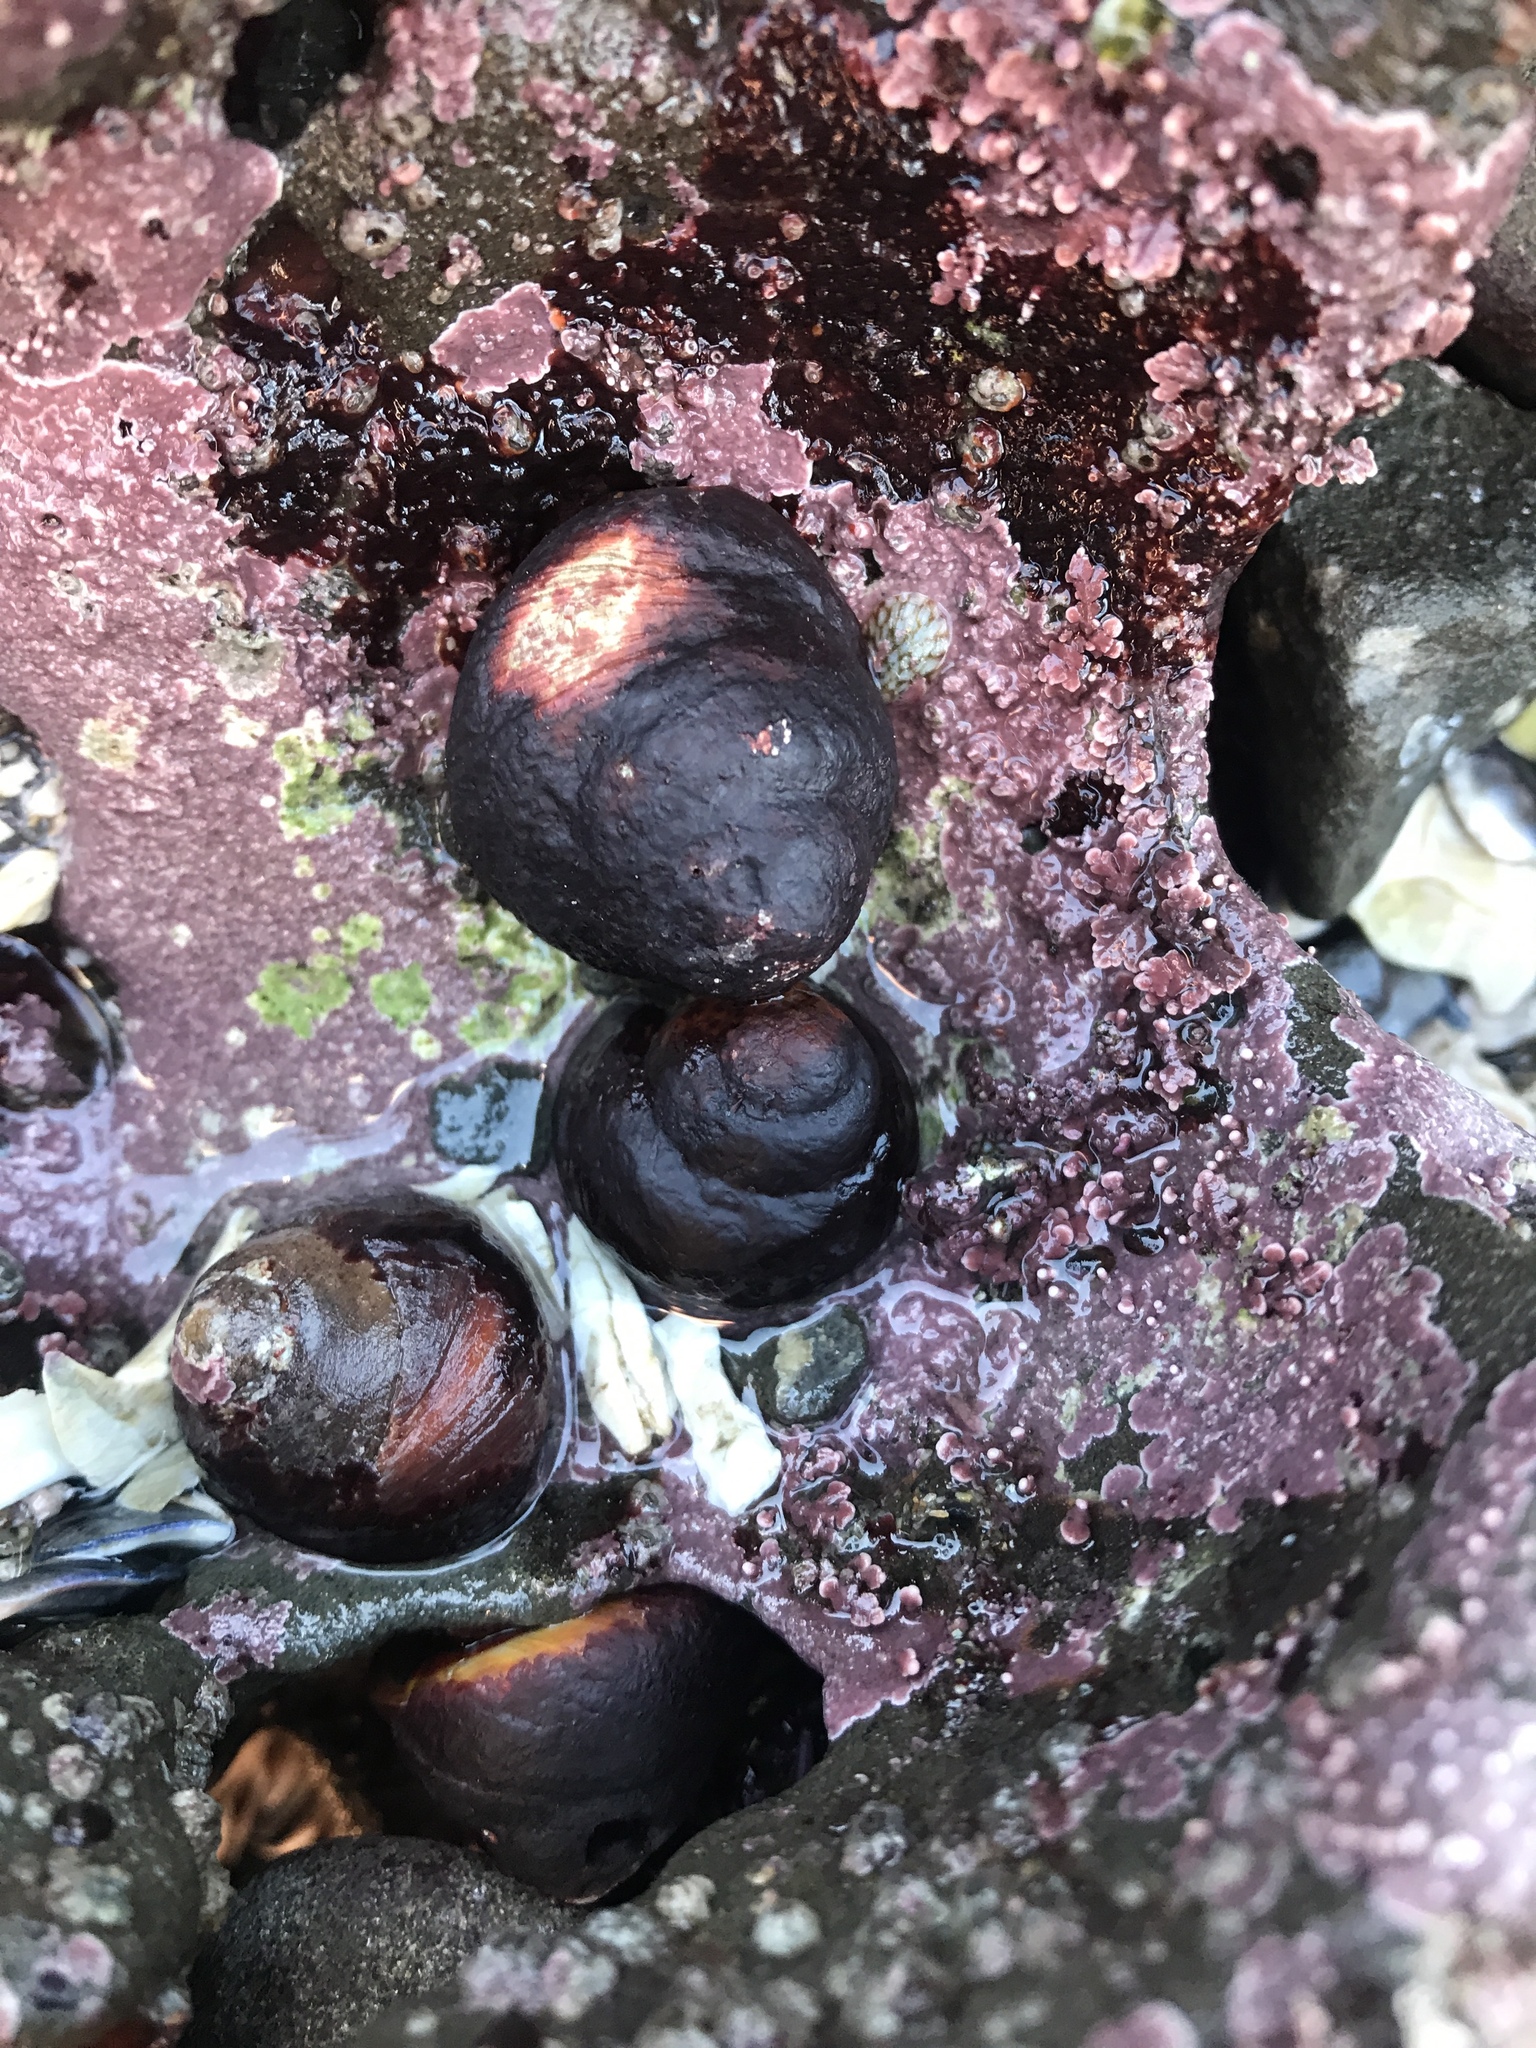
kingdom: Animalia
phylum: Mollusca
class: Gastropoda
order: Trochida
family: Tegulidae
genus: Tegula
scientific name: Tegula brunnea
